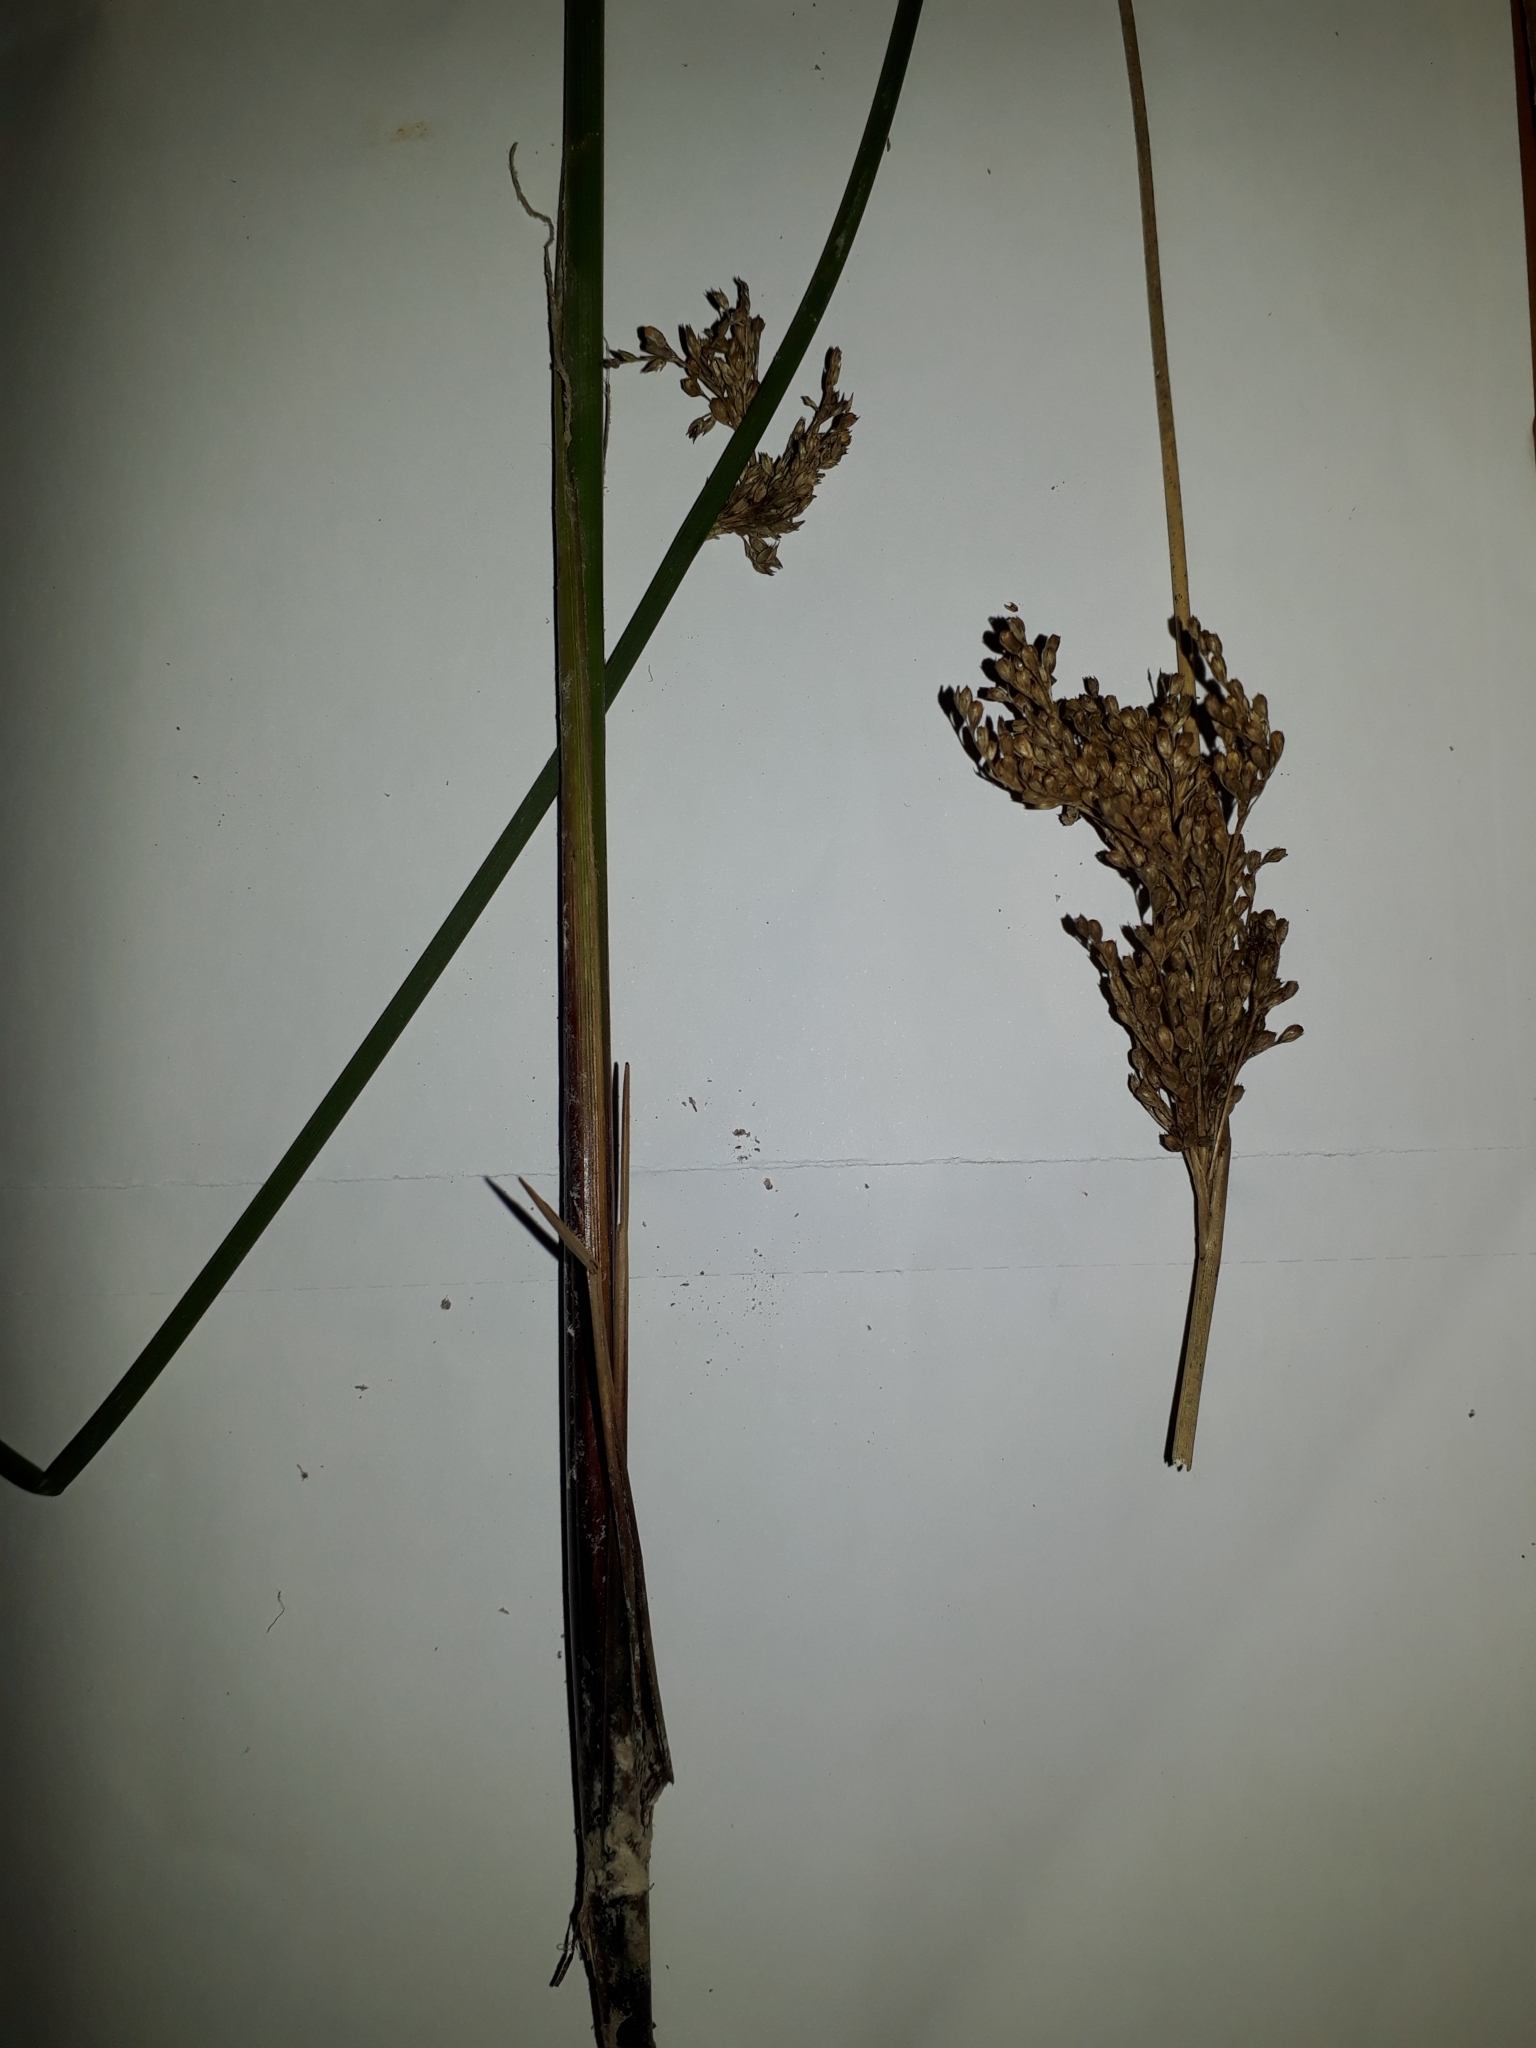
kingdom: Plantae
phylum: Tracheophyta
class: Liliopsida
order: Poales
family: Juncaceae
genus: Juncus
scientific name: Juncus sarophorus
